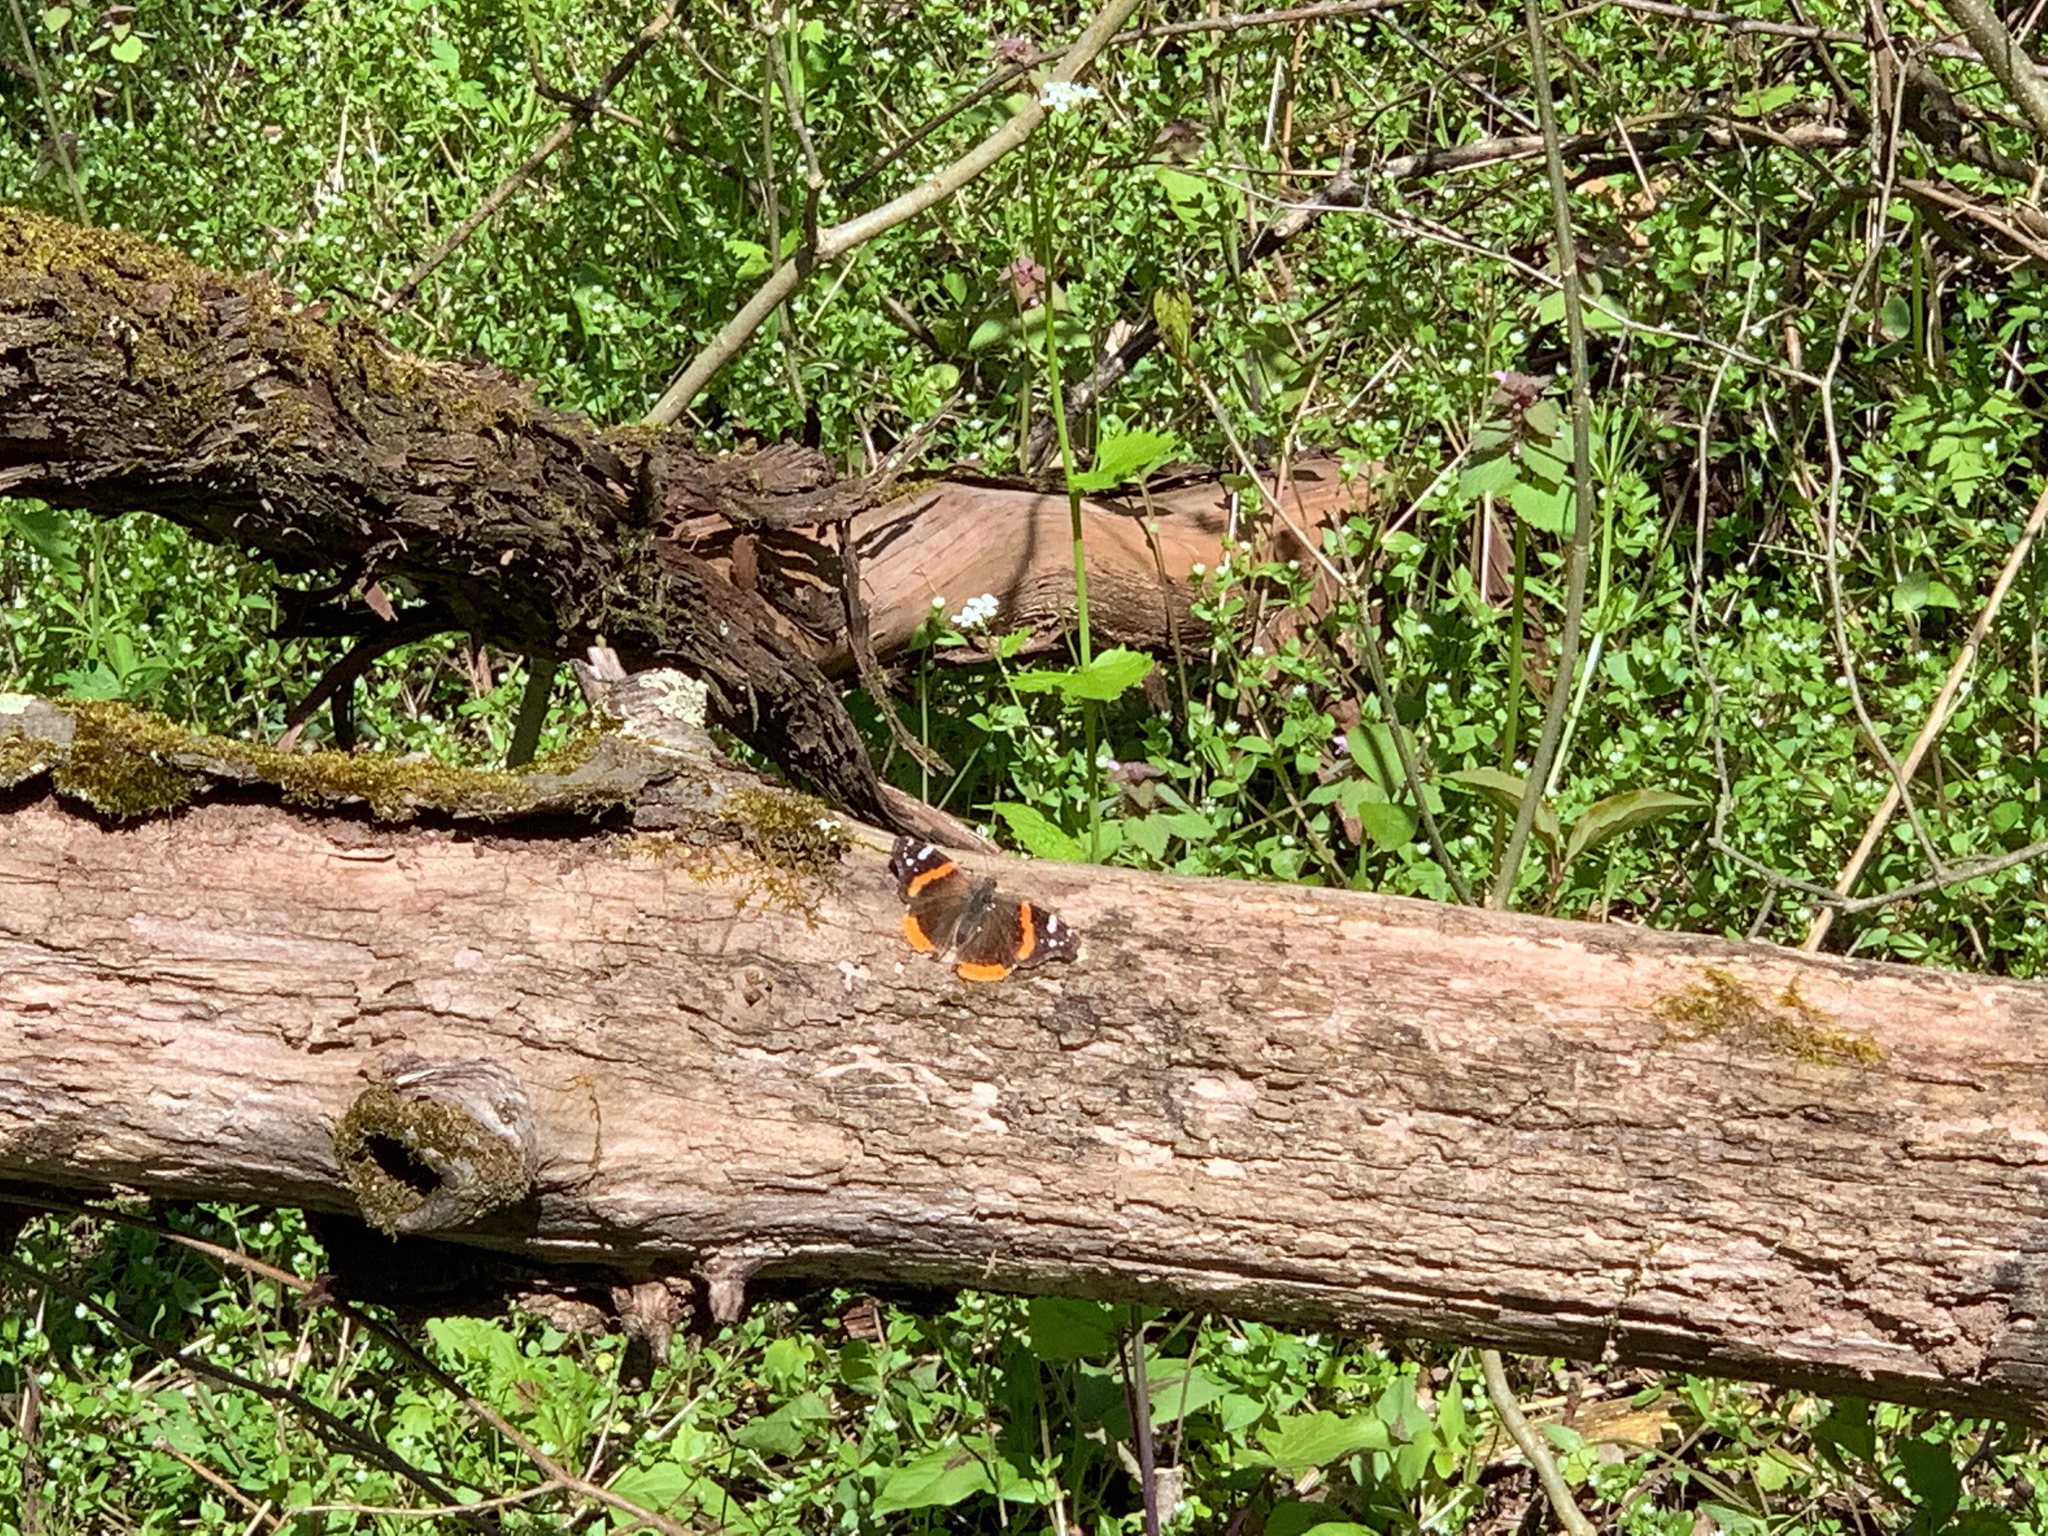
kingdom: Animalia
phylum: Arthropoda
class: Insecta
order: Lepidoptera
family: Nymphalidae
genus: Vanessa
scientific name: Vanessa atalanta
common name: Red admiral
